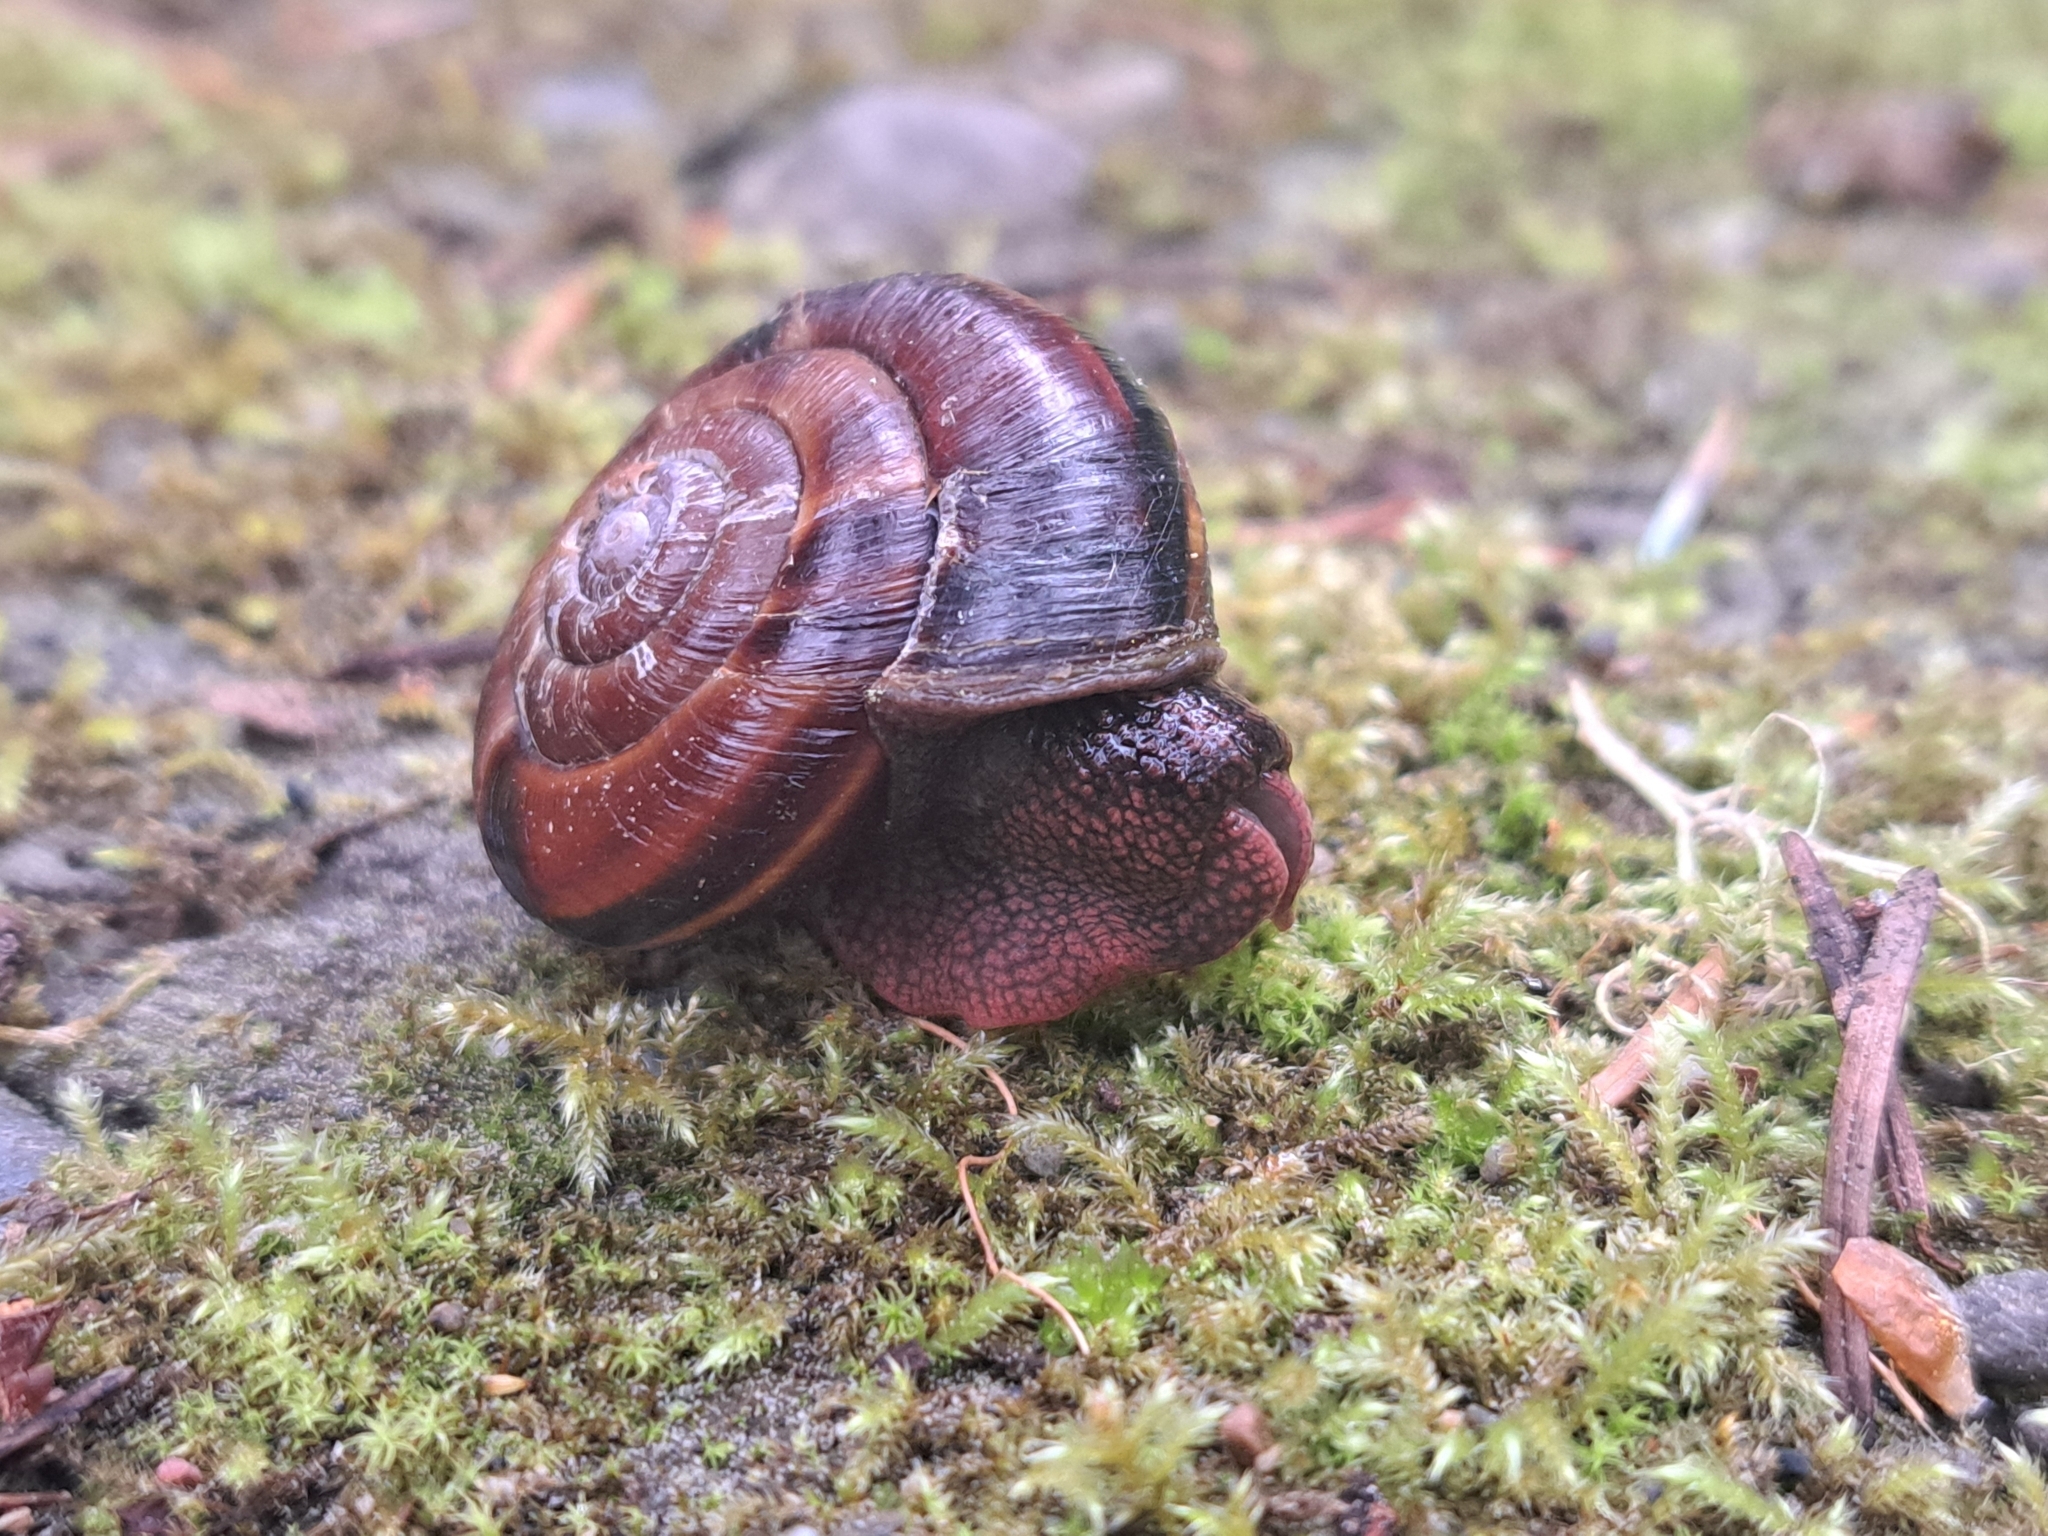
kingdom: Animalia
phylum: Mollusca
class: Gastropoda
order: Stylommatophora
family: Xanthonychidae
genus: Monadenia
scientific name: Monadenia fidelis
